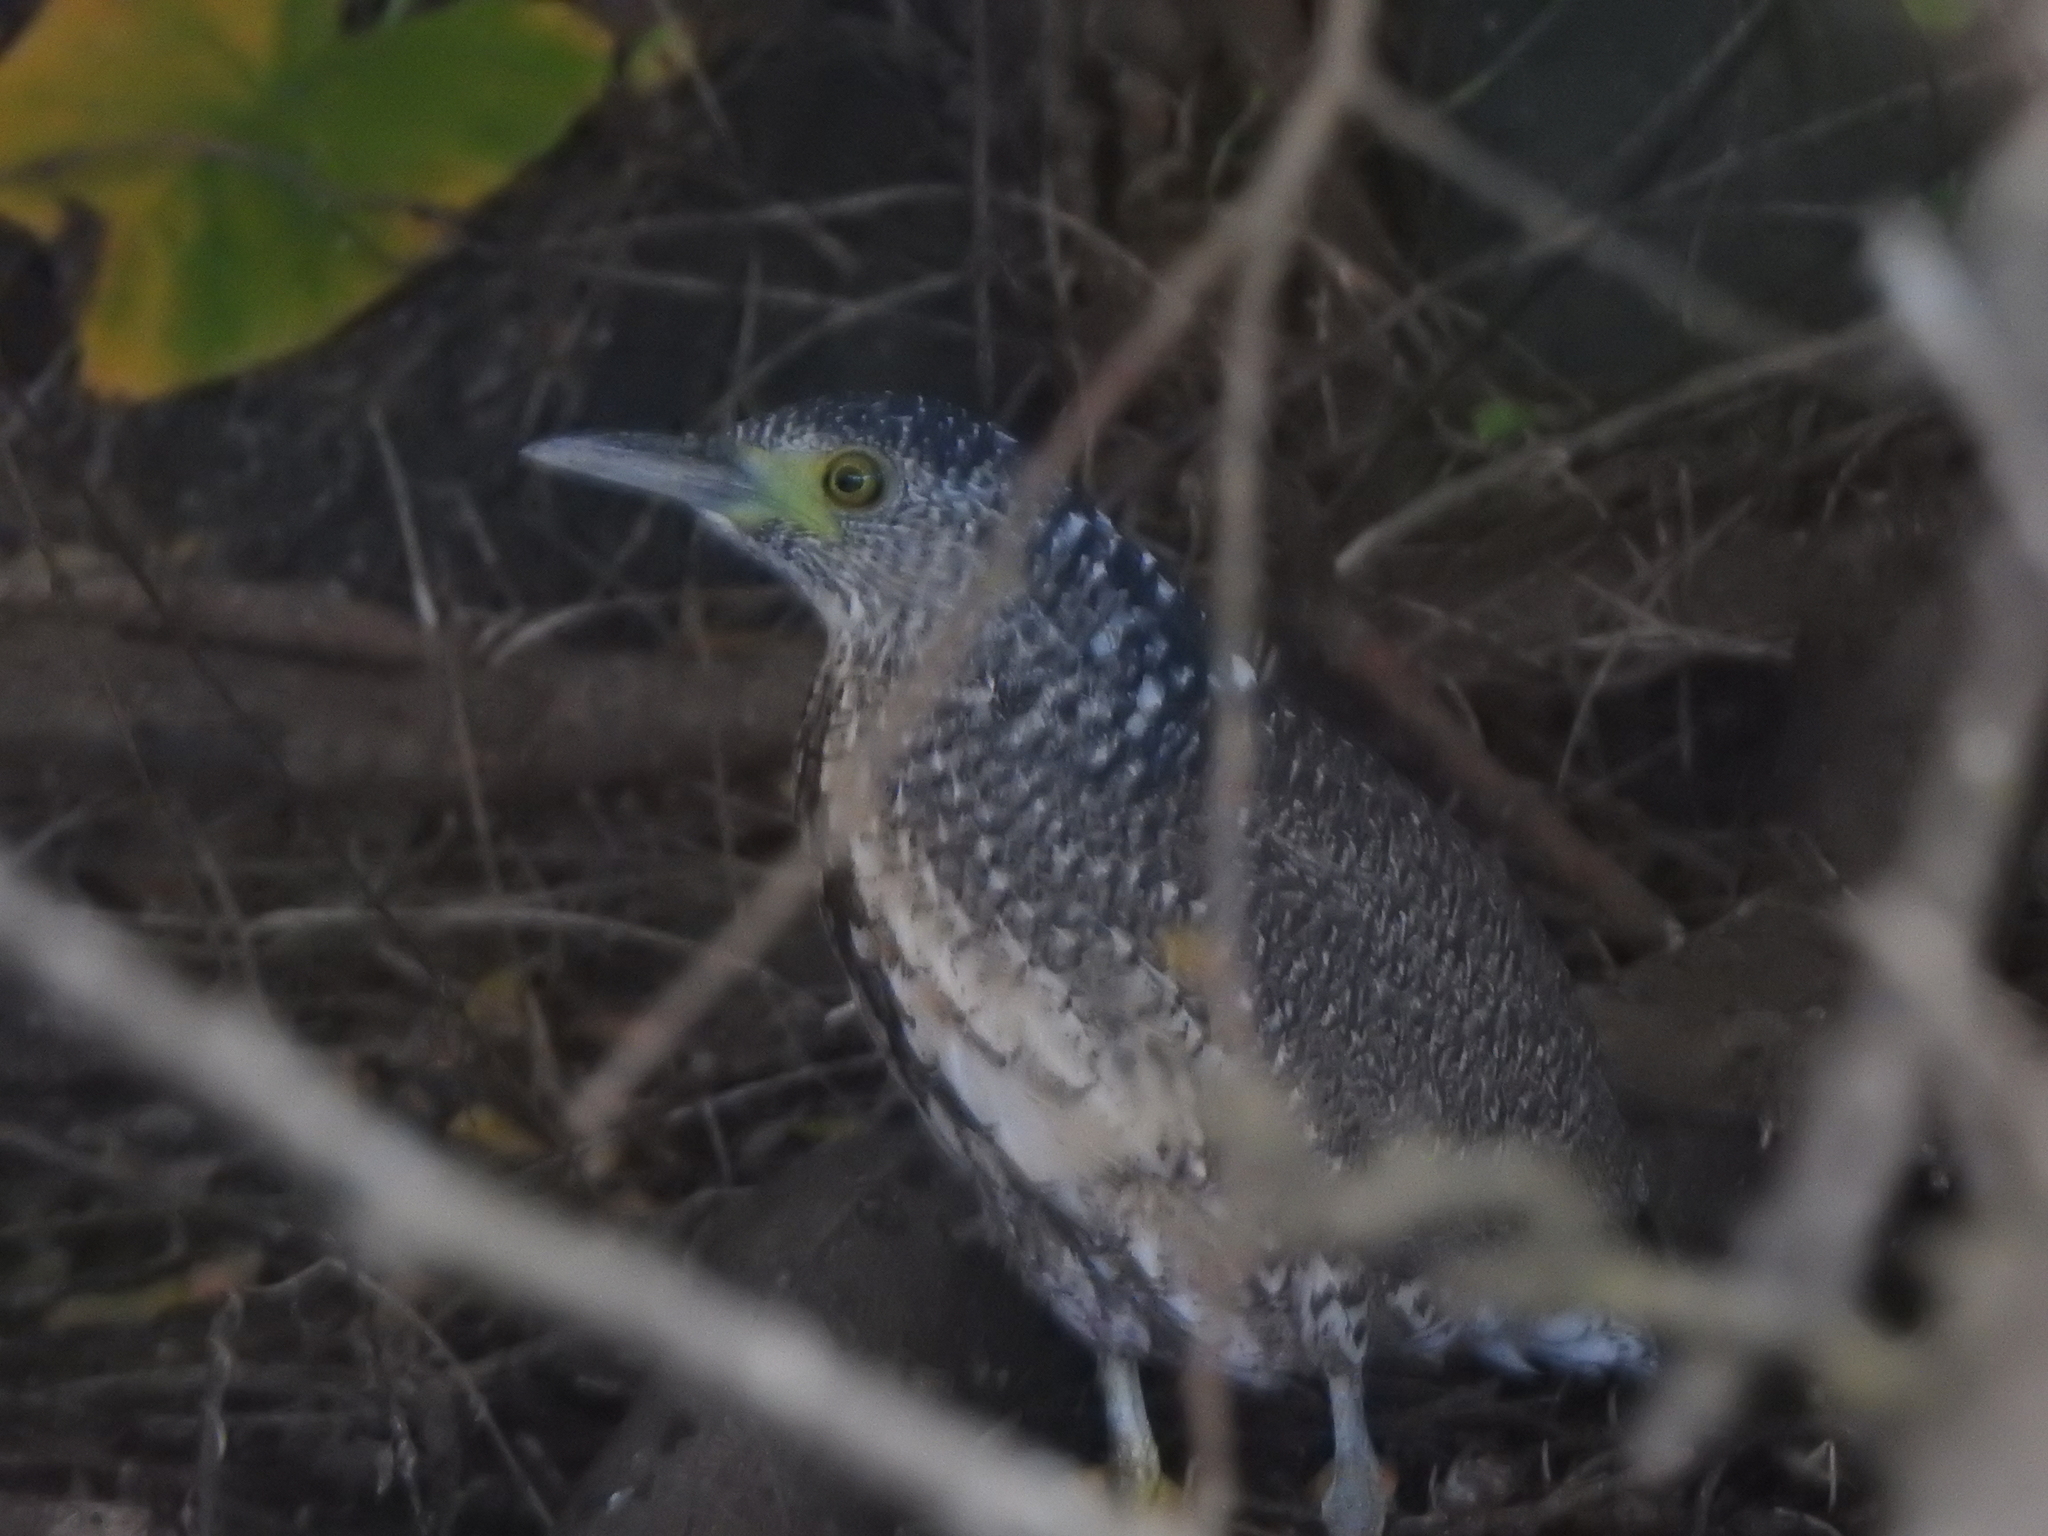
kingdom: Animalia
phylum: Chordata
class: Aves
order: Pelecaniformes
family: Ardeidae
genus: Gorsachius
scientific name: Gorsachius melanolophus
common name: Malayan night heron
